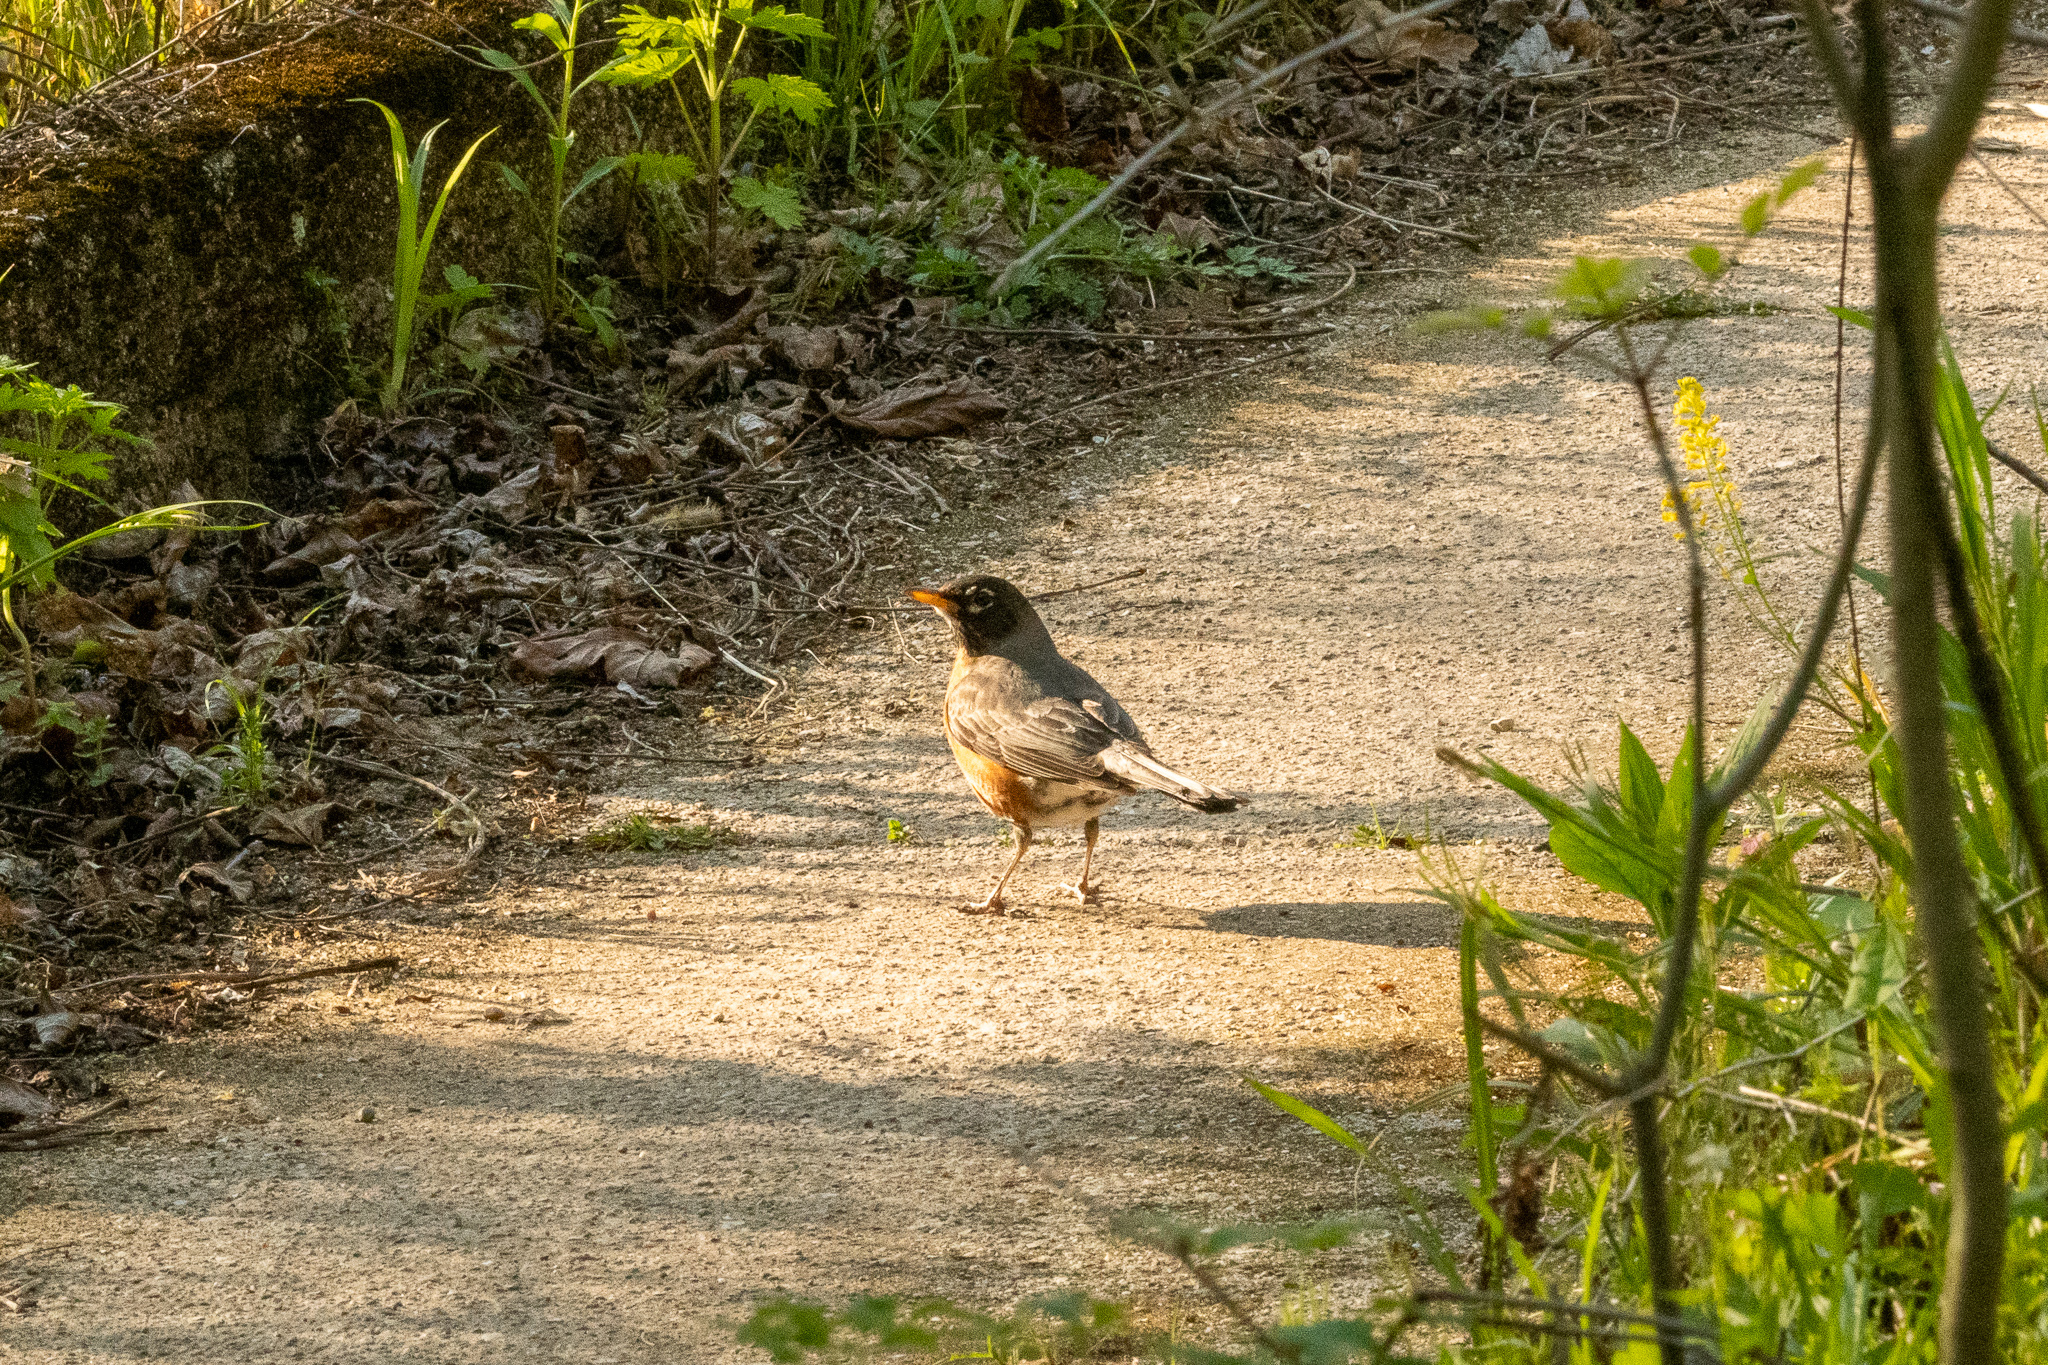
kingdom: Animalia
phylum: Chordata
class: Aves
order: Passeriformes
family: Turdidae
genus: Turdus
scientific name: Turdus migratorius
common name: American robin
